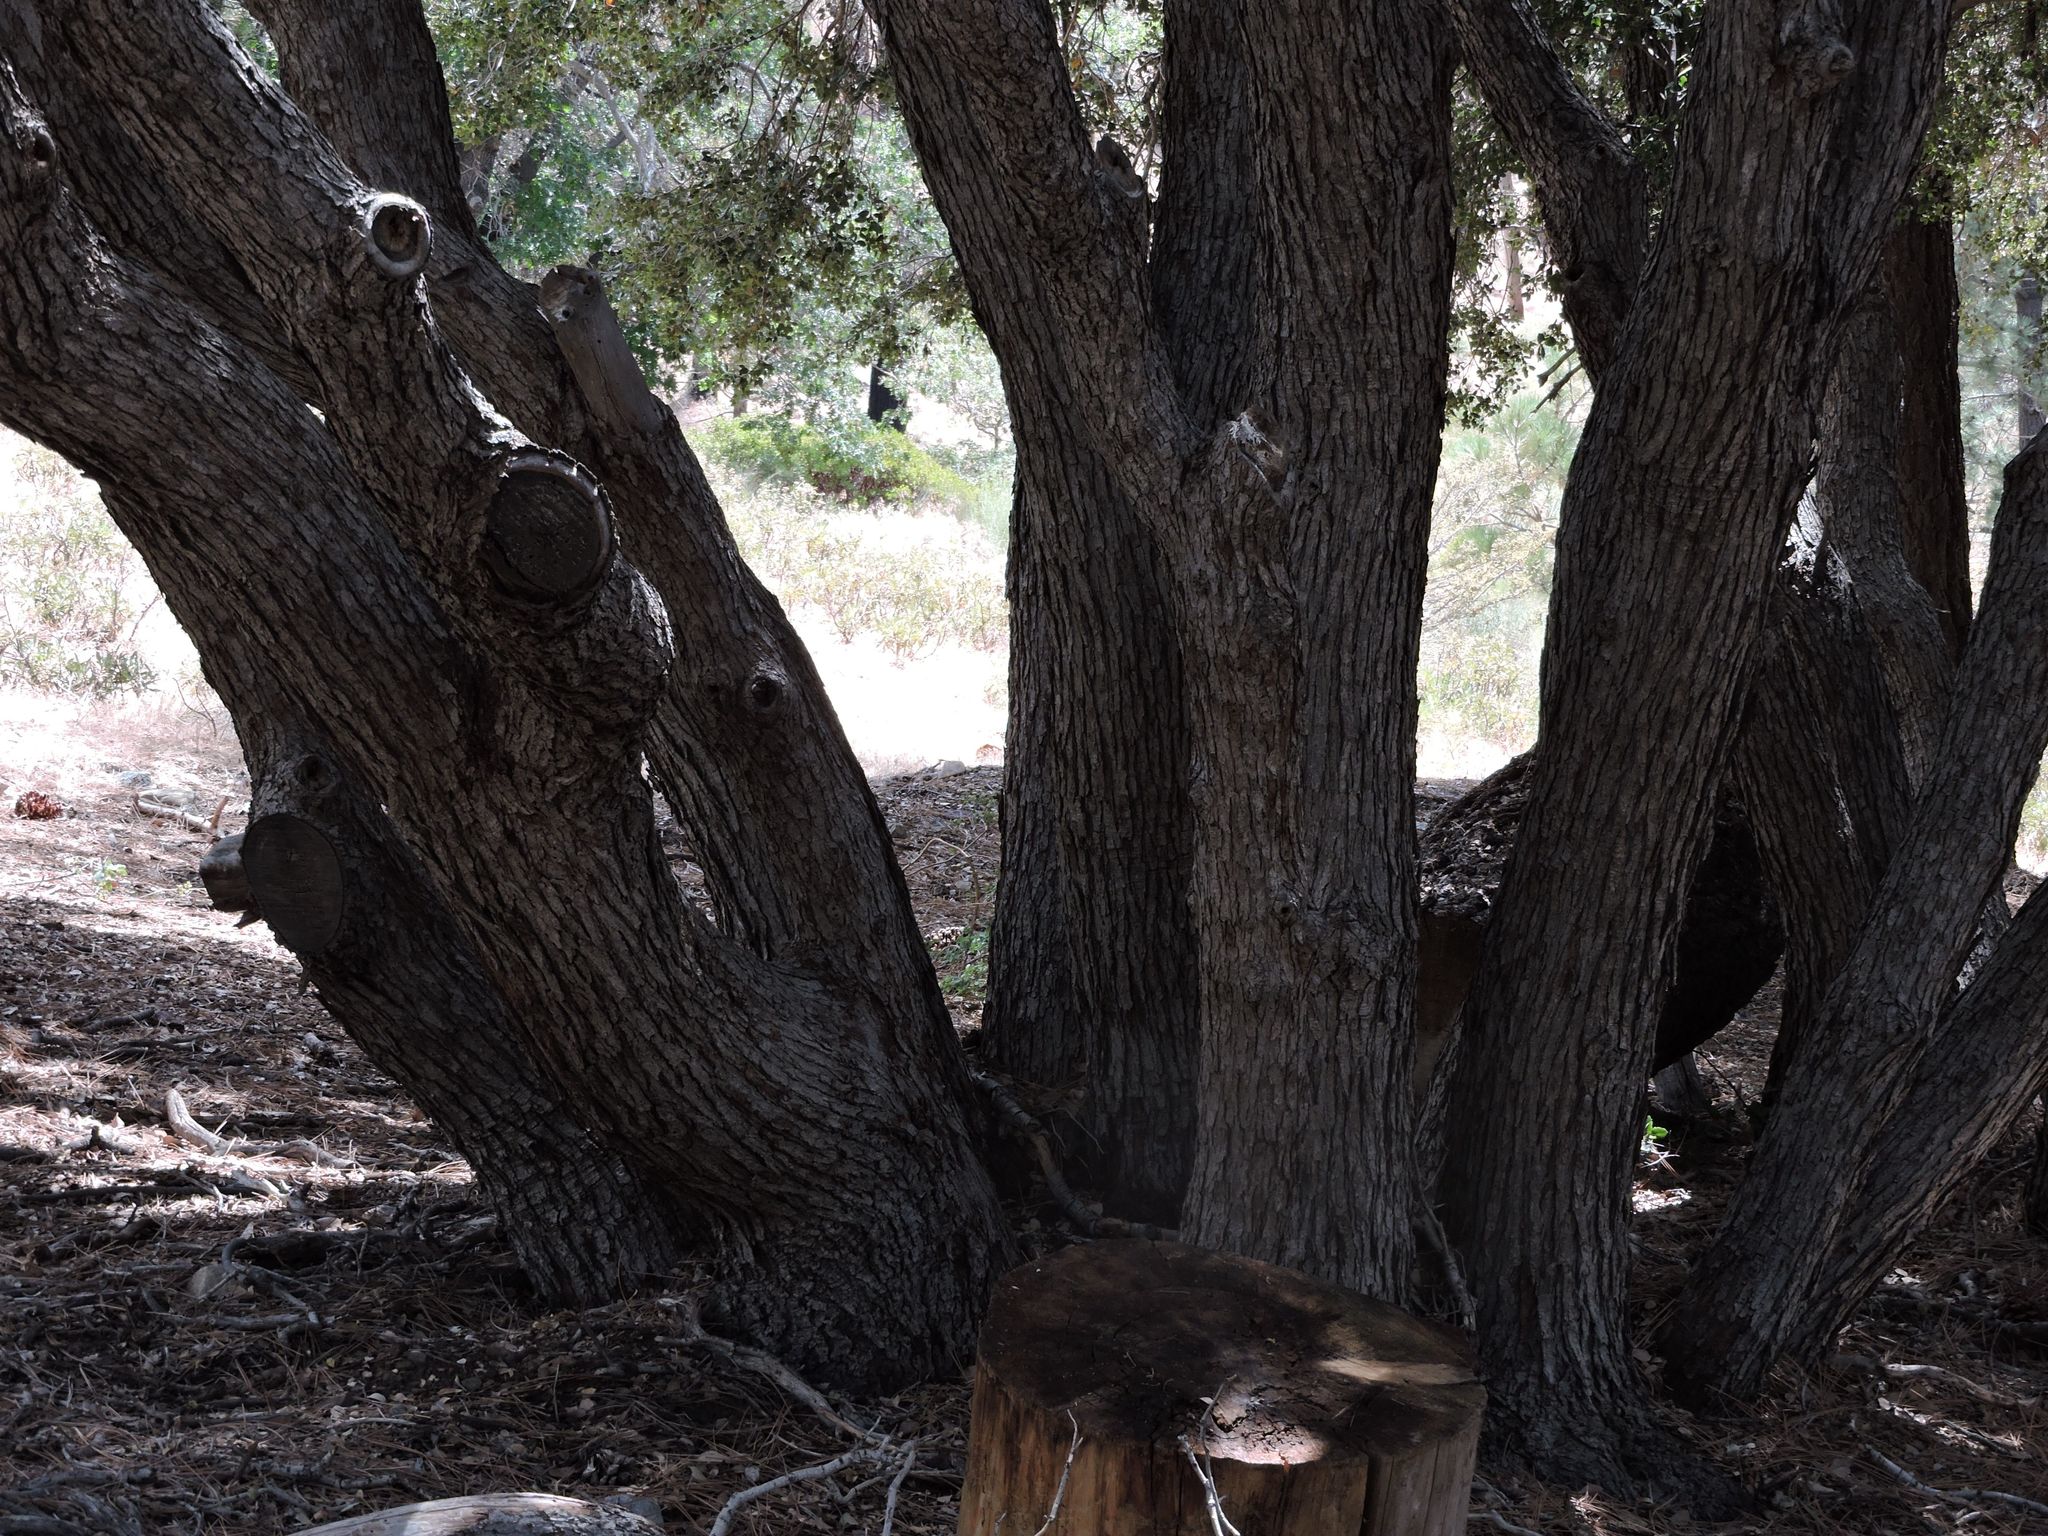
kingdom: Plantae
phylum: Tracheophyta
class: Magnoliopsida
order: Fagales
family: Fagaceae
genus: Quercus
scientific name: Quercus chrysolepis
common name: Canyon live oak
